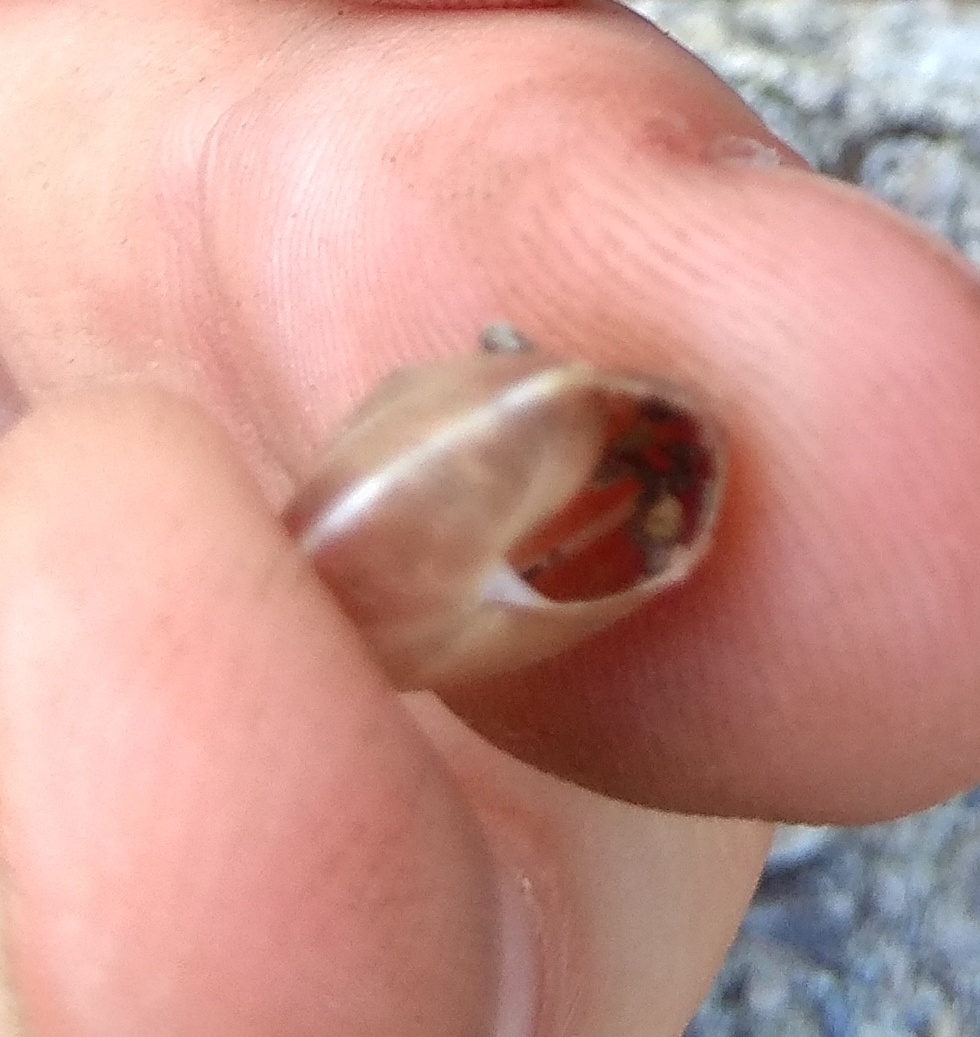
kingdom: Animalia
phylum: Mollusca
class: Gastropoda
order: Stylommatophora
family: Hygromiidae
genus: Hygromia
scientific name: Hygromia cinctella
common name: Girdled snail
